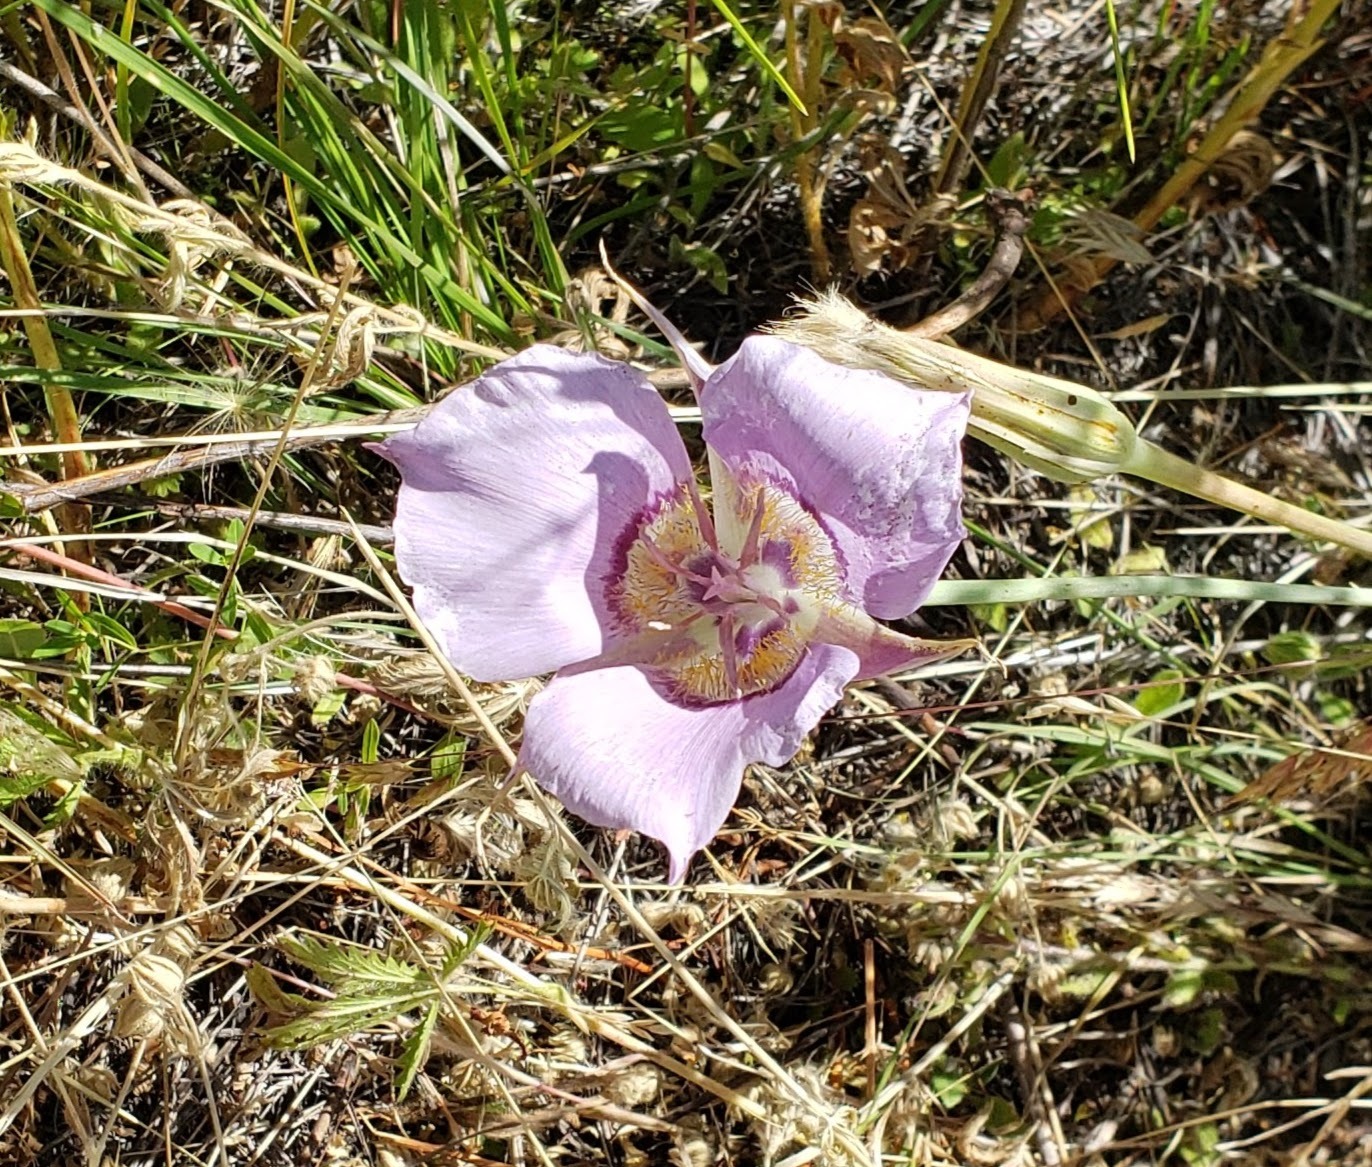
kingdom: Plantae
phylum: Tracheophyta
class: Liliopsida
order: Liliales
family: Liliaceae
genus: Calochortus
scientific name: Calochortus macrocarpus
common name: Green-band mariposa lily
